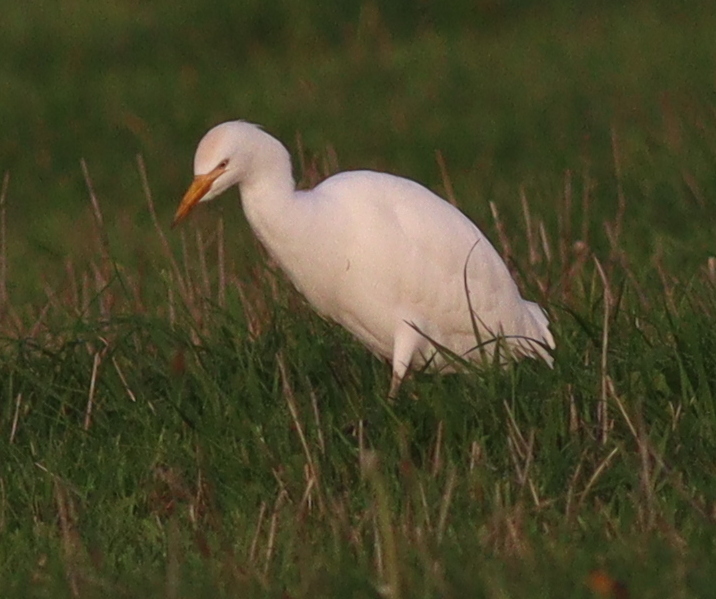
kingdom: Animalia
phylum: Chordata
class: Aves
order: Pelecaniformes
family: Ardeidae
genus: Bubulcus
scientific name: Bubulcus ibis
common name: Cattle egret
